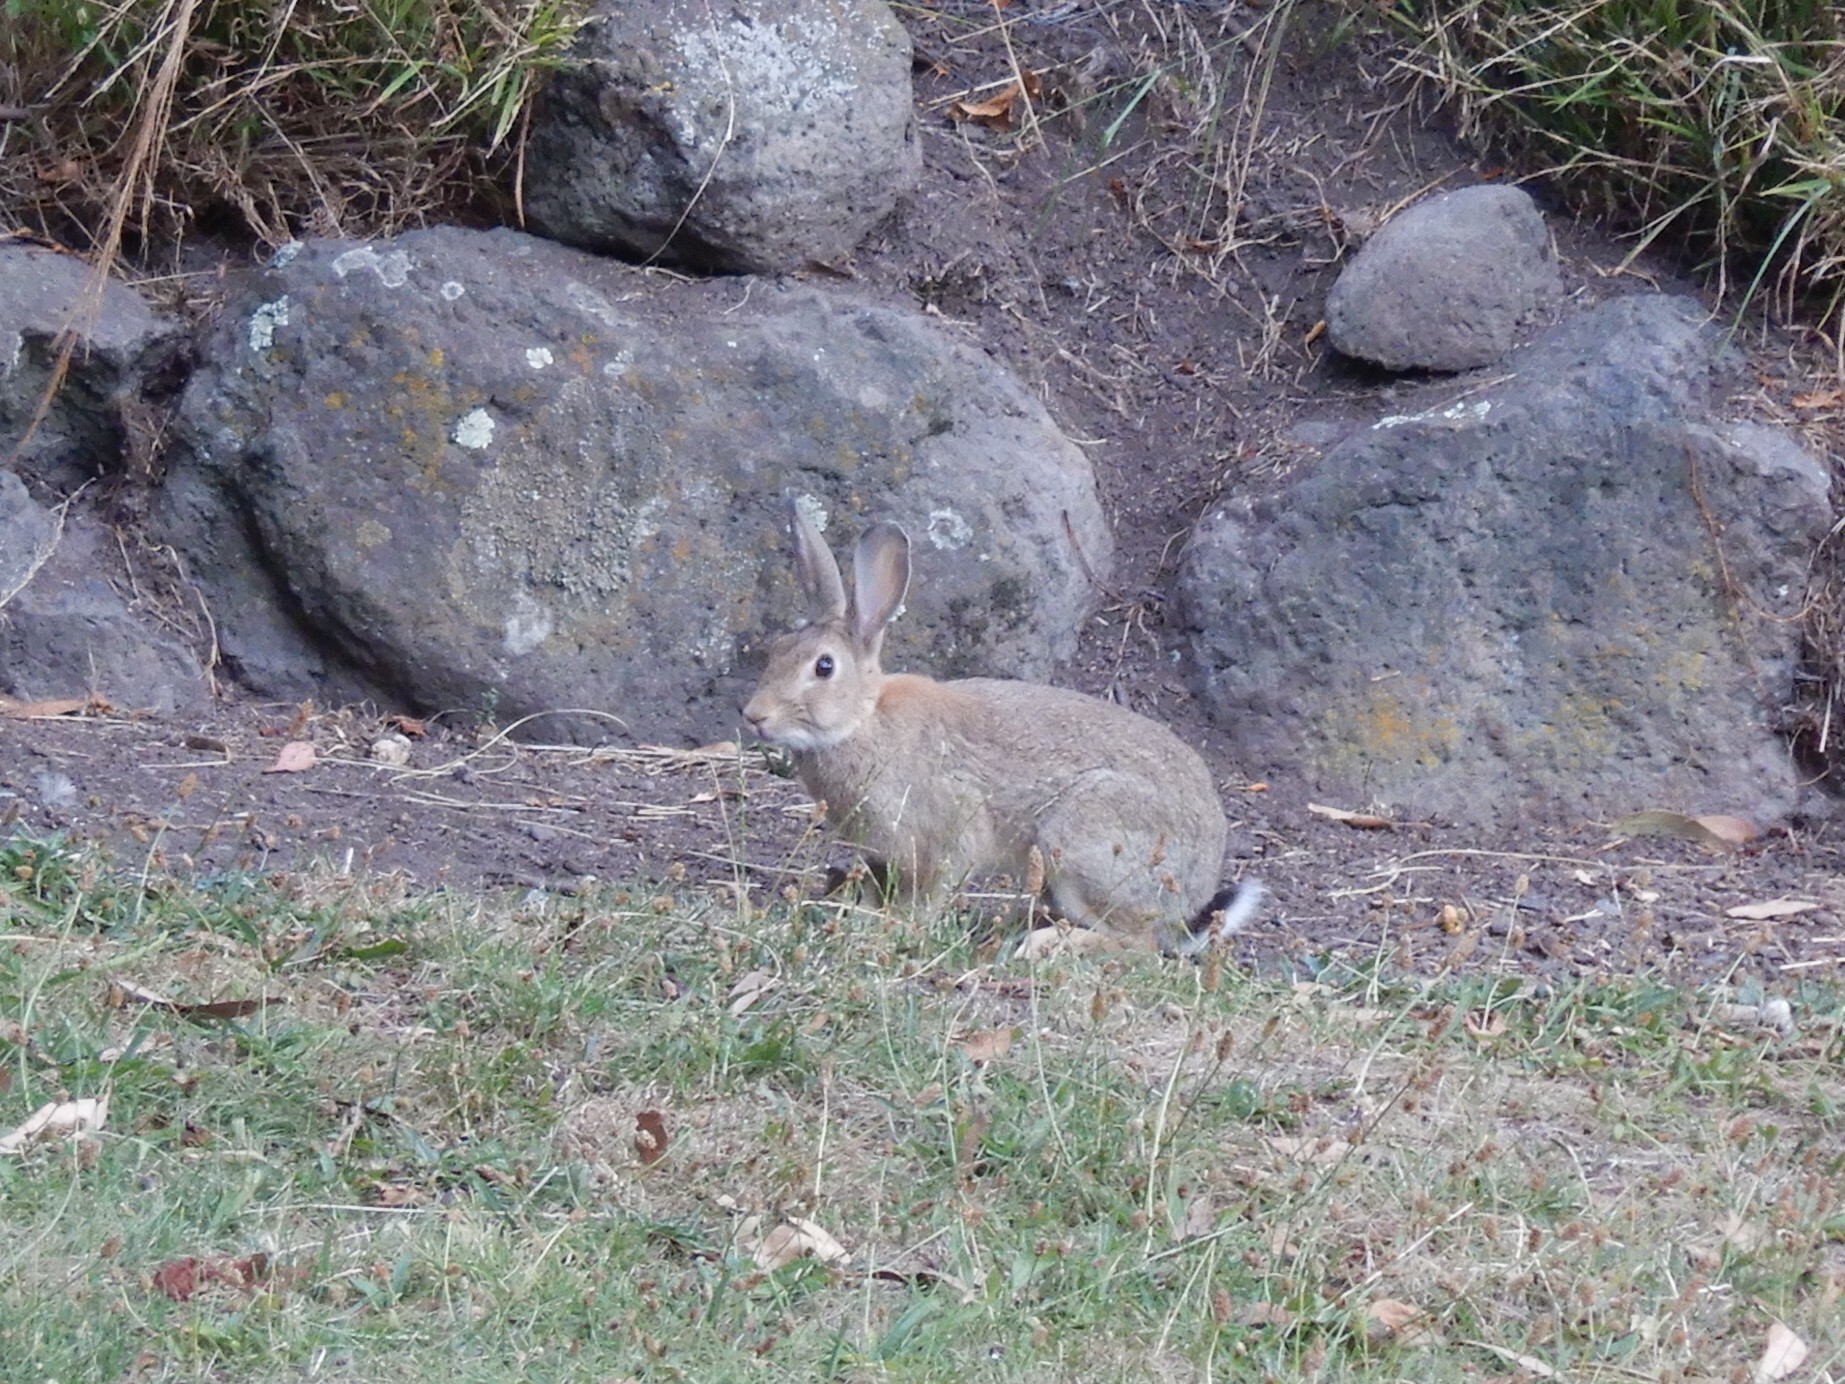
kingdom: Animalia
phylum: Chordata
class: Mammalia
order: Lagomorpha
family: Leporidae
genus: Oryctolagus
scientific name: Oryctolagus cuniculus
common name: European rabbit
